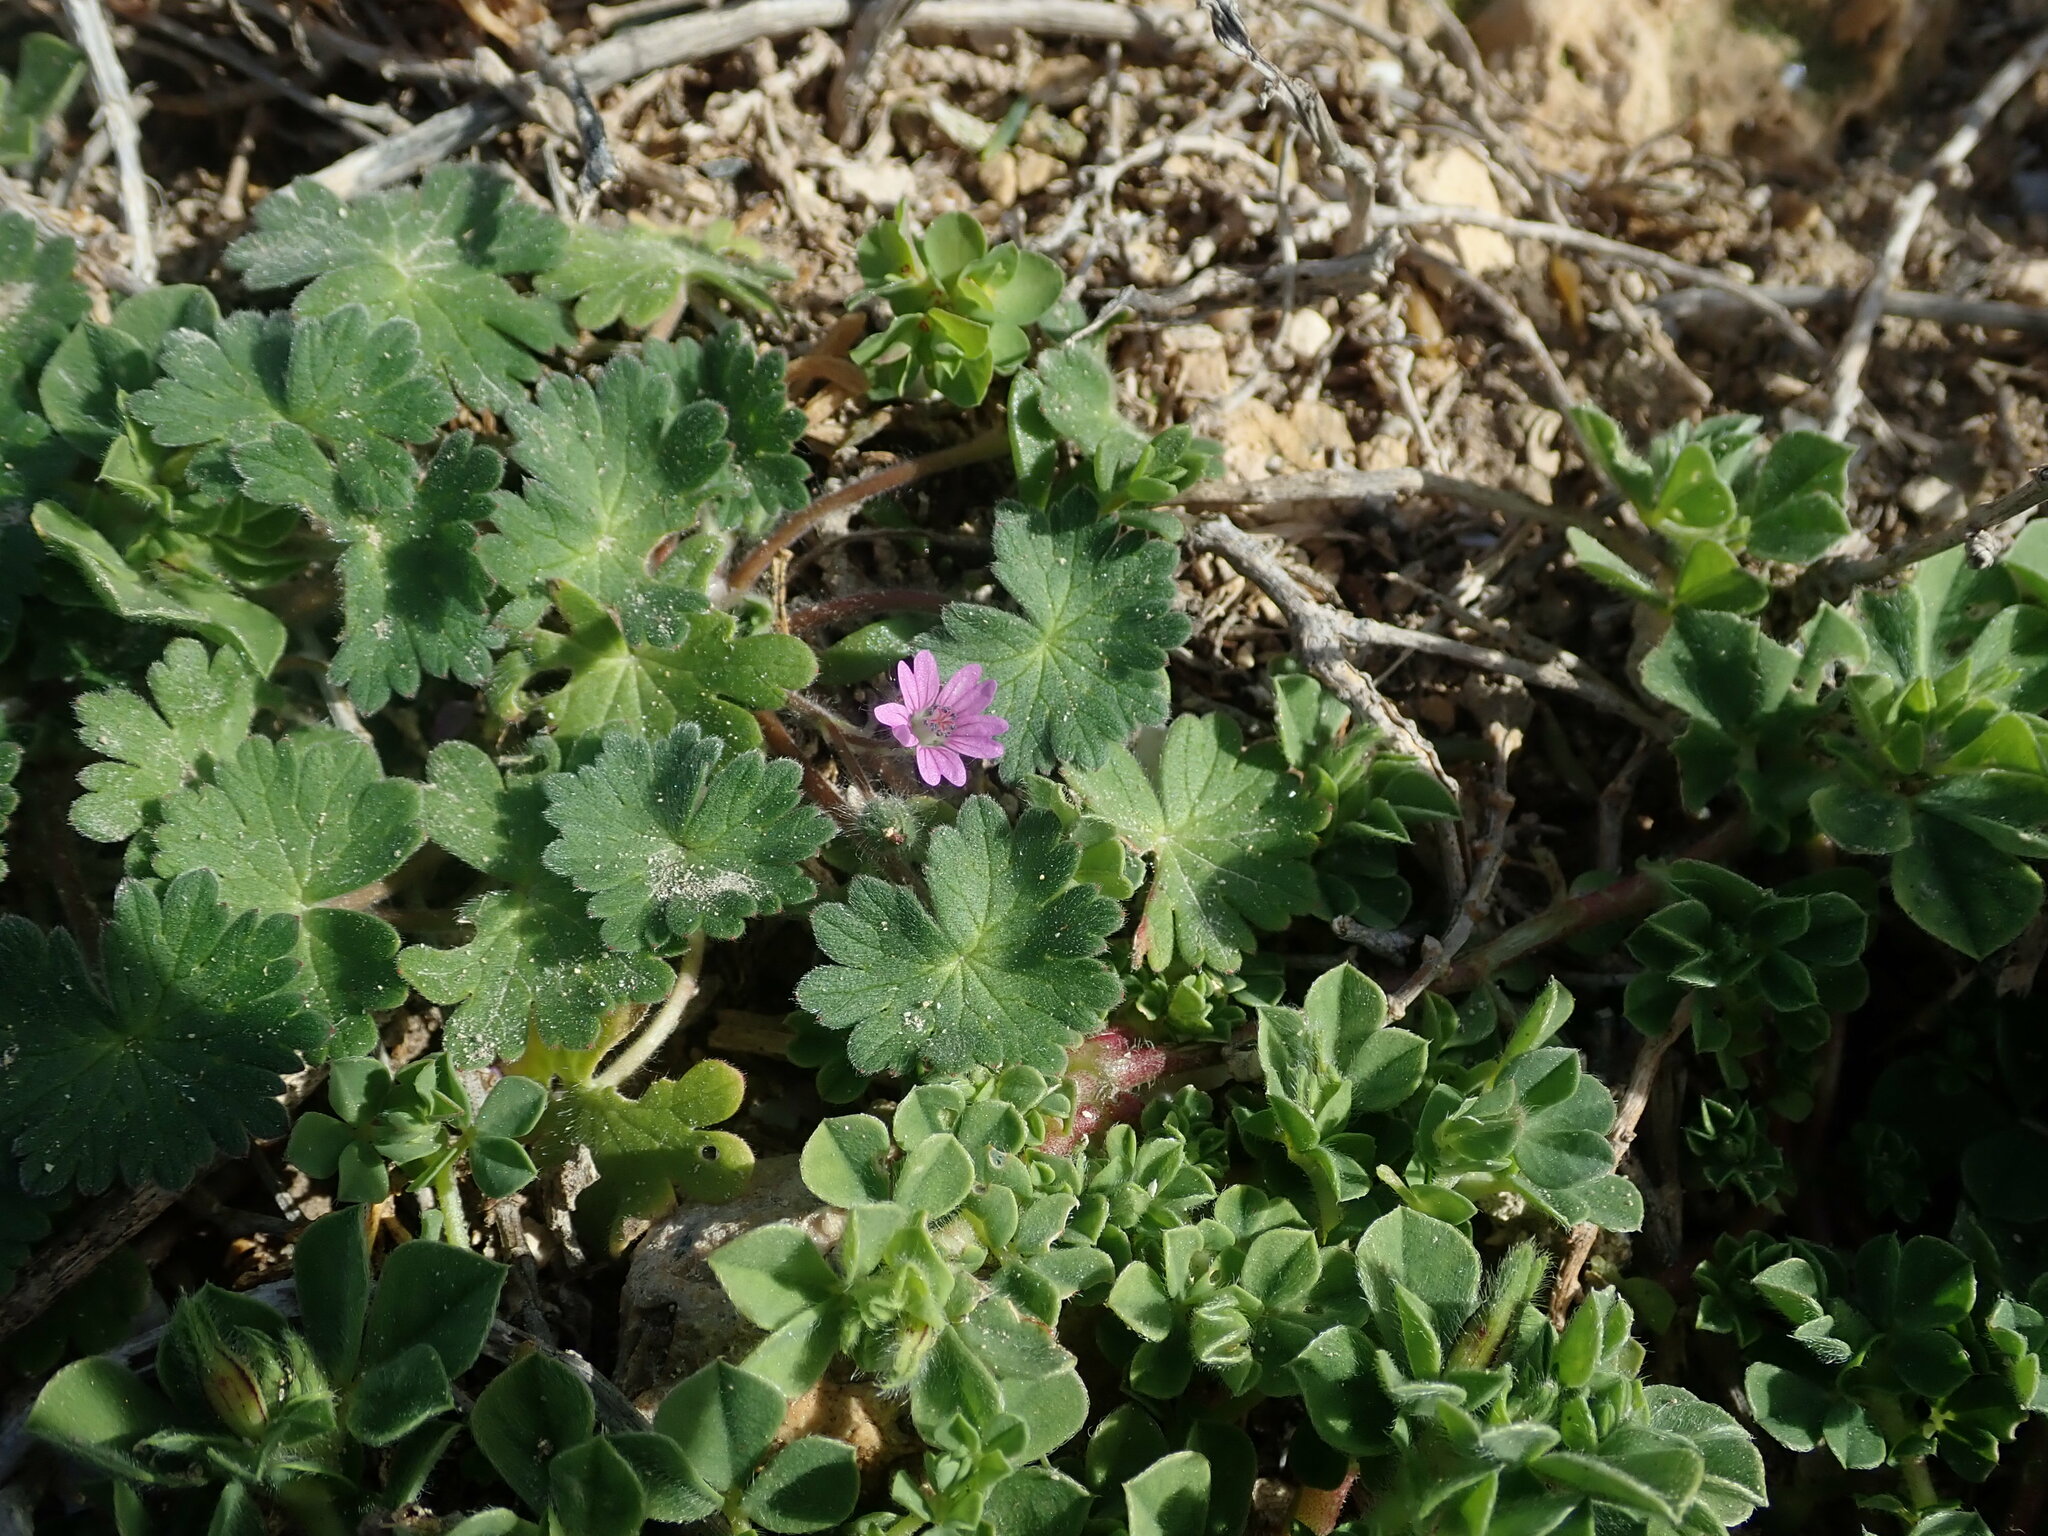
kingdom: Plantae
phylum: Tracheophyta
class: Magnoliopsida
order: Geraniales
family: Geraniaceae
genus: Geranium
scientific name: Geranium molle
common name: Dove's-foot crane's-bill
